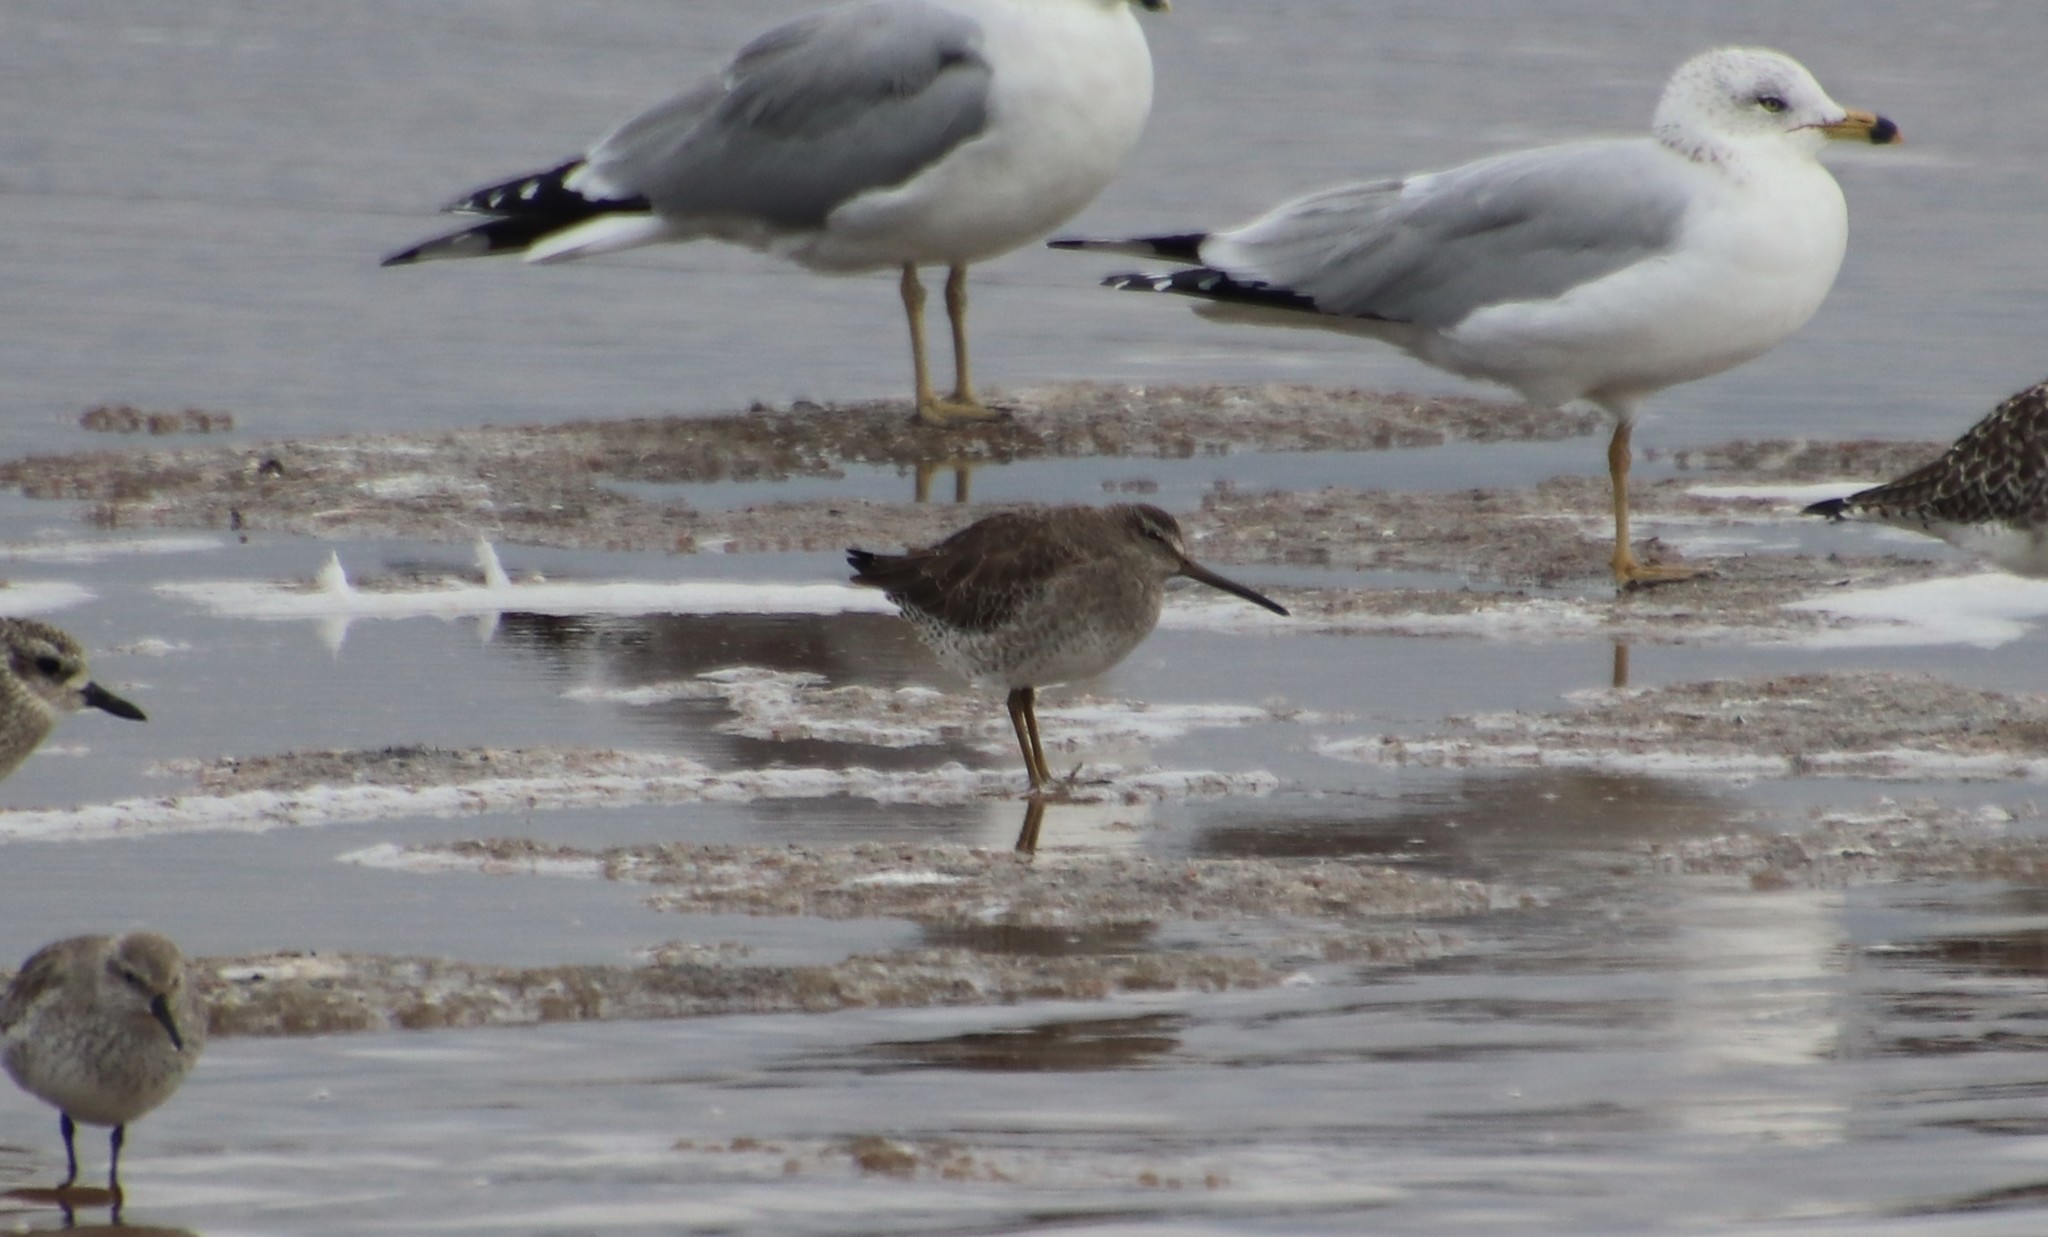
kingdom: Animalia
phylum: Chordata
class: Aves
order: Charadriiformes
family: Scolopacidae
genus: Limnodromus
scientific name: Limnodromus
